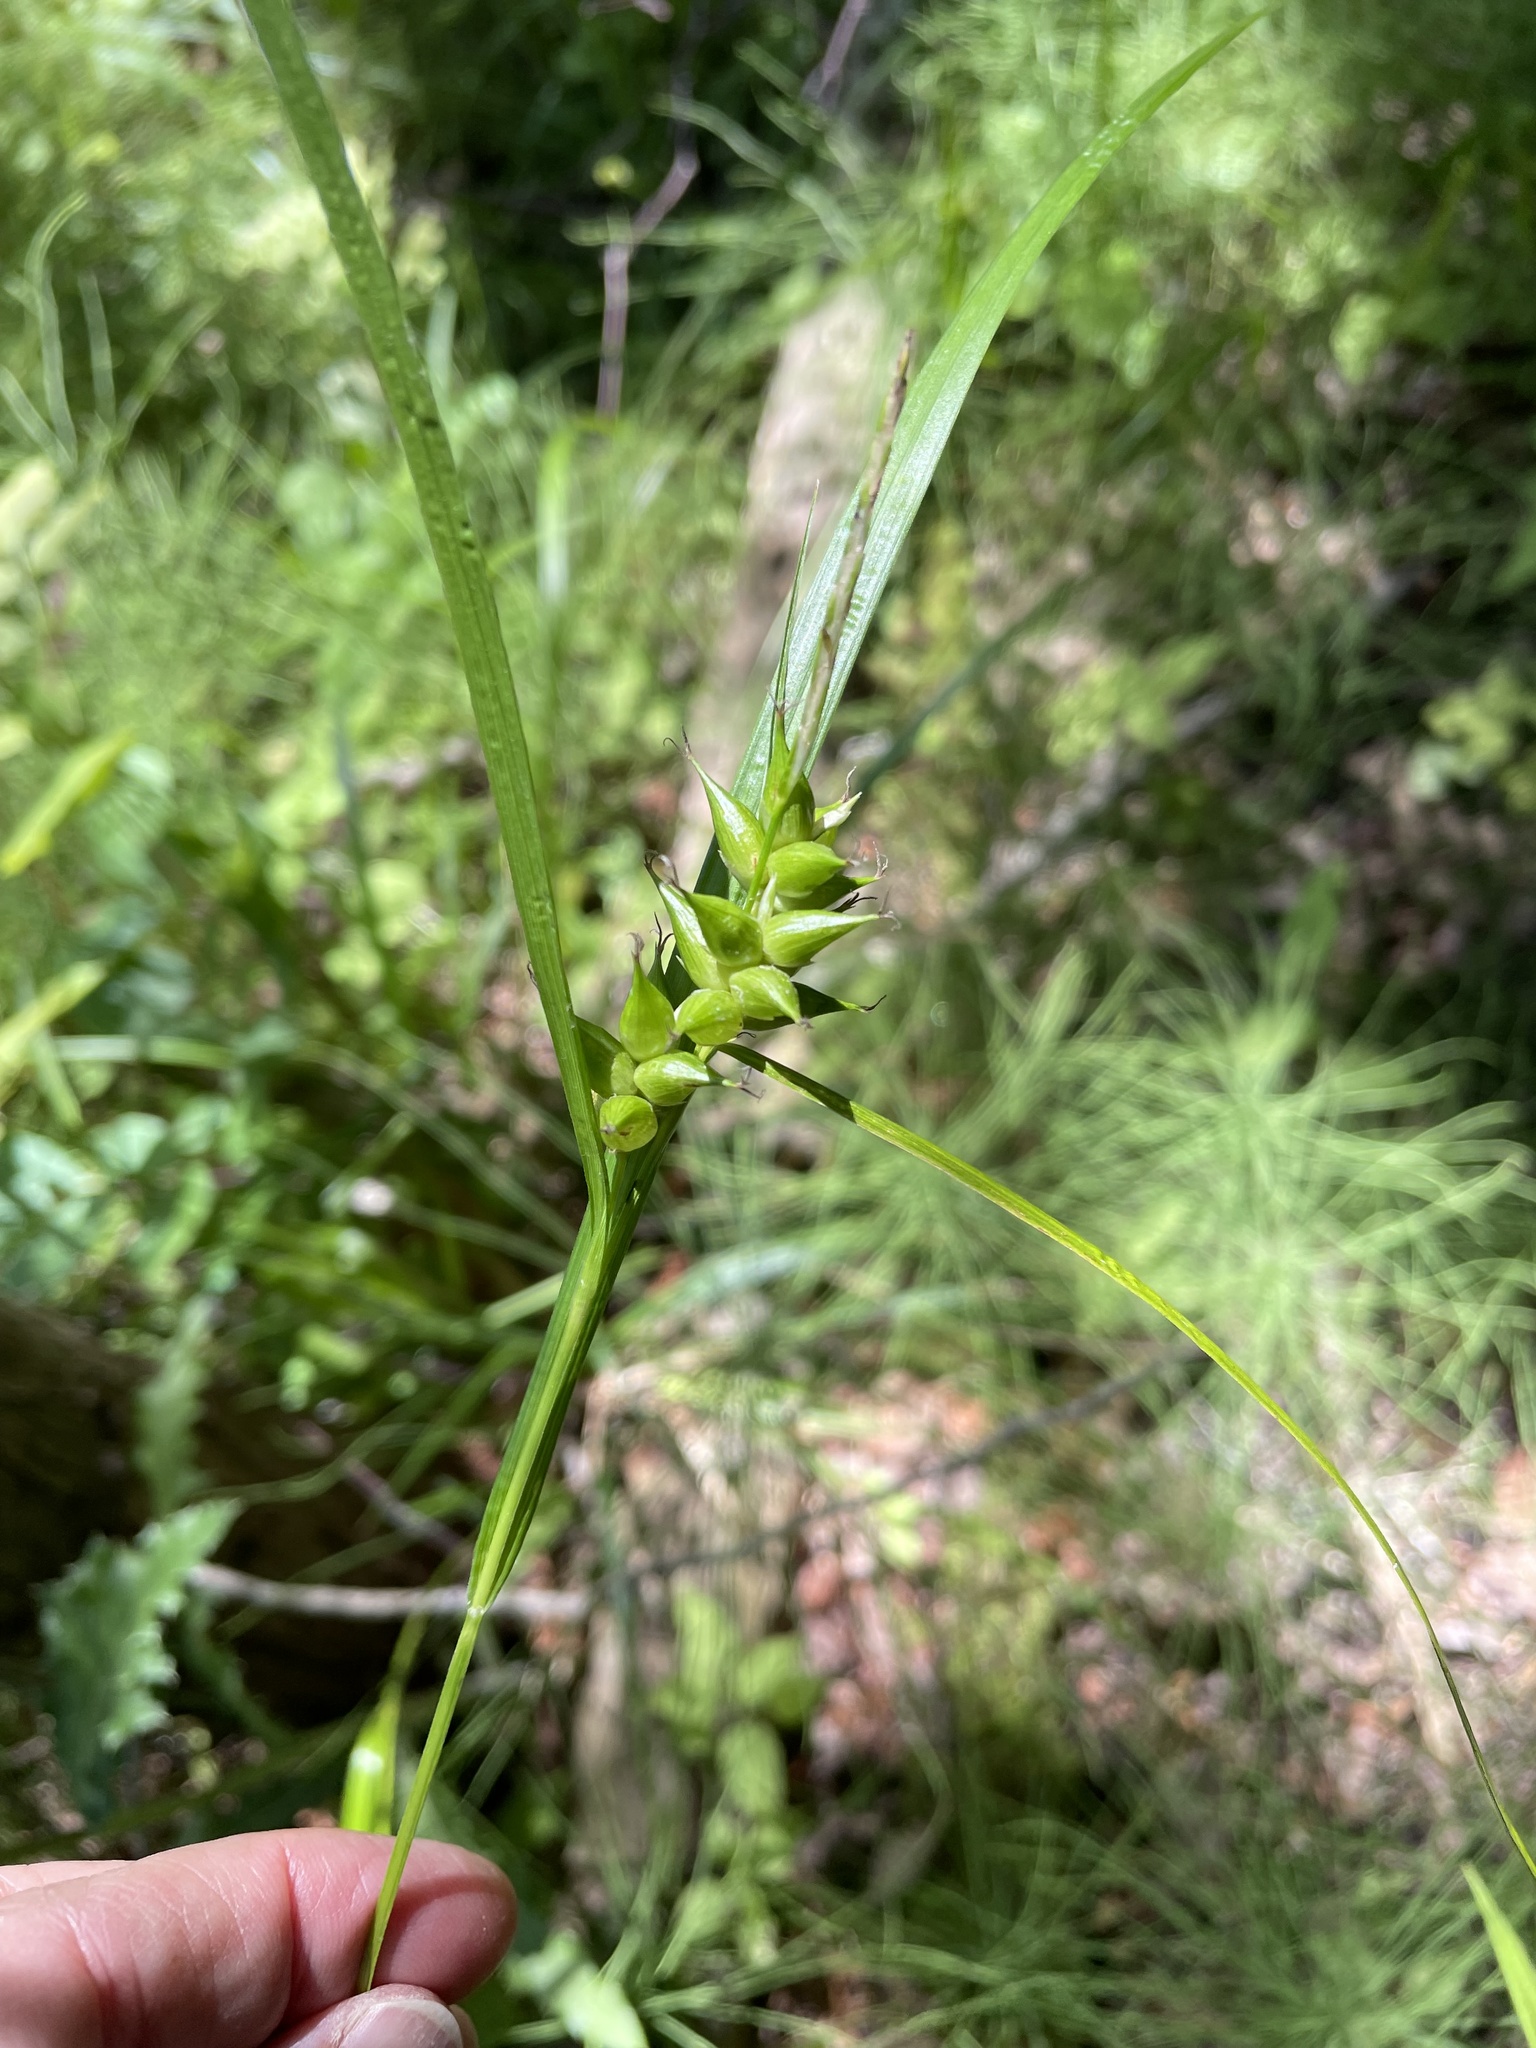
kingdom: Plantae
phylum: Tracheophyta
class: Liliopsida
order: Poales
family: Cyperaceae
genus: Carex
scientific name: Carex intumescens
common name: Greater bladder sedge
